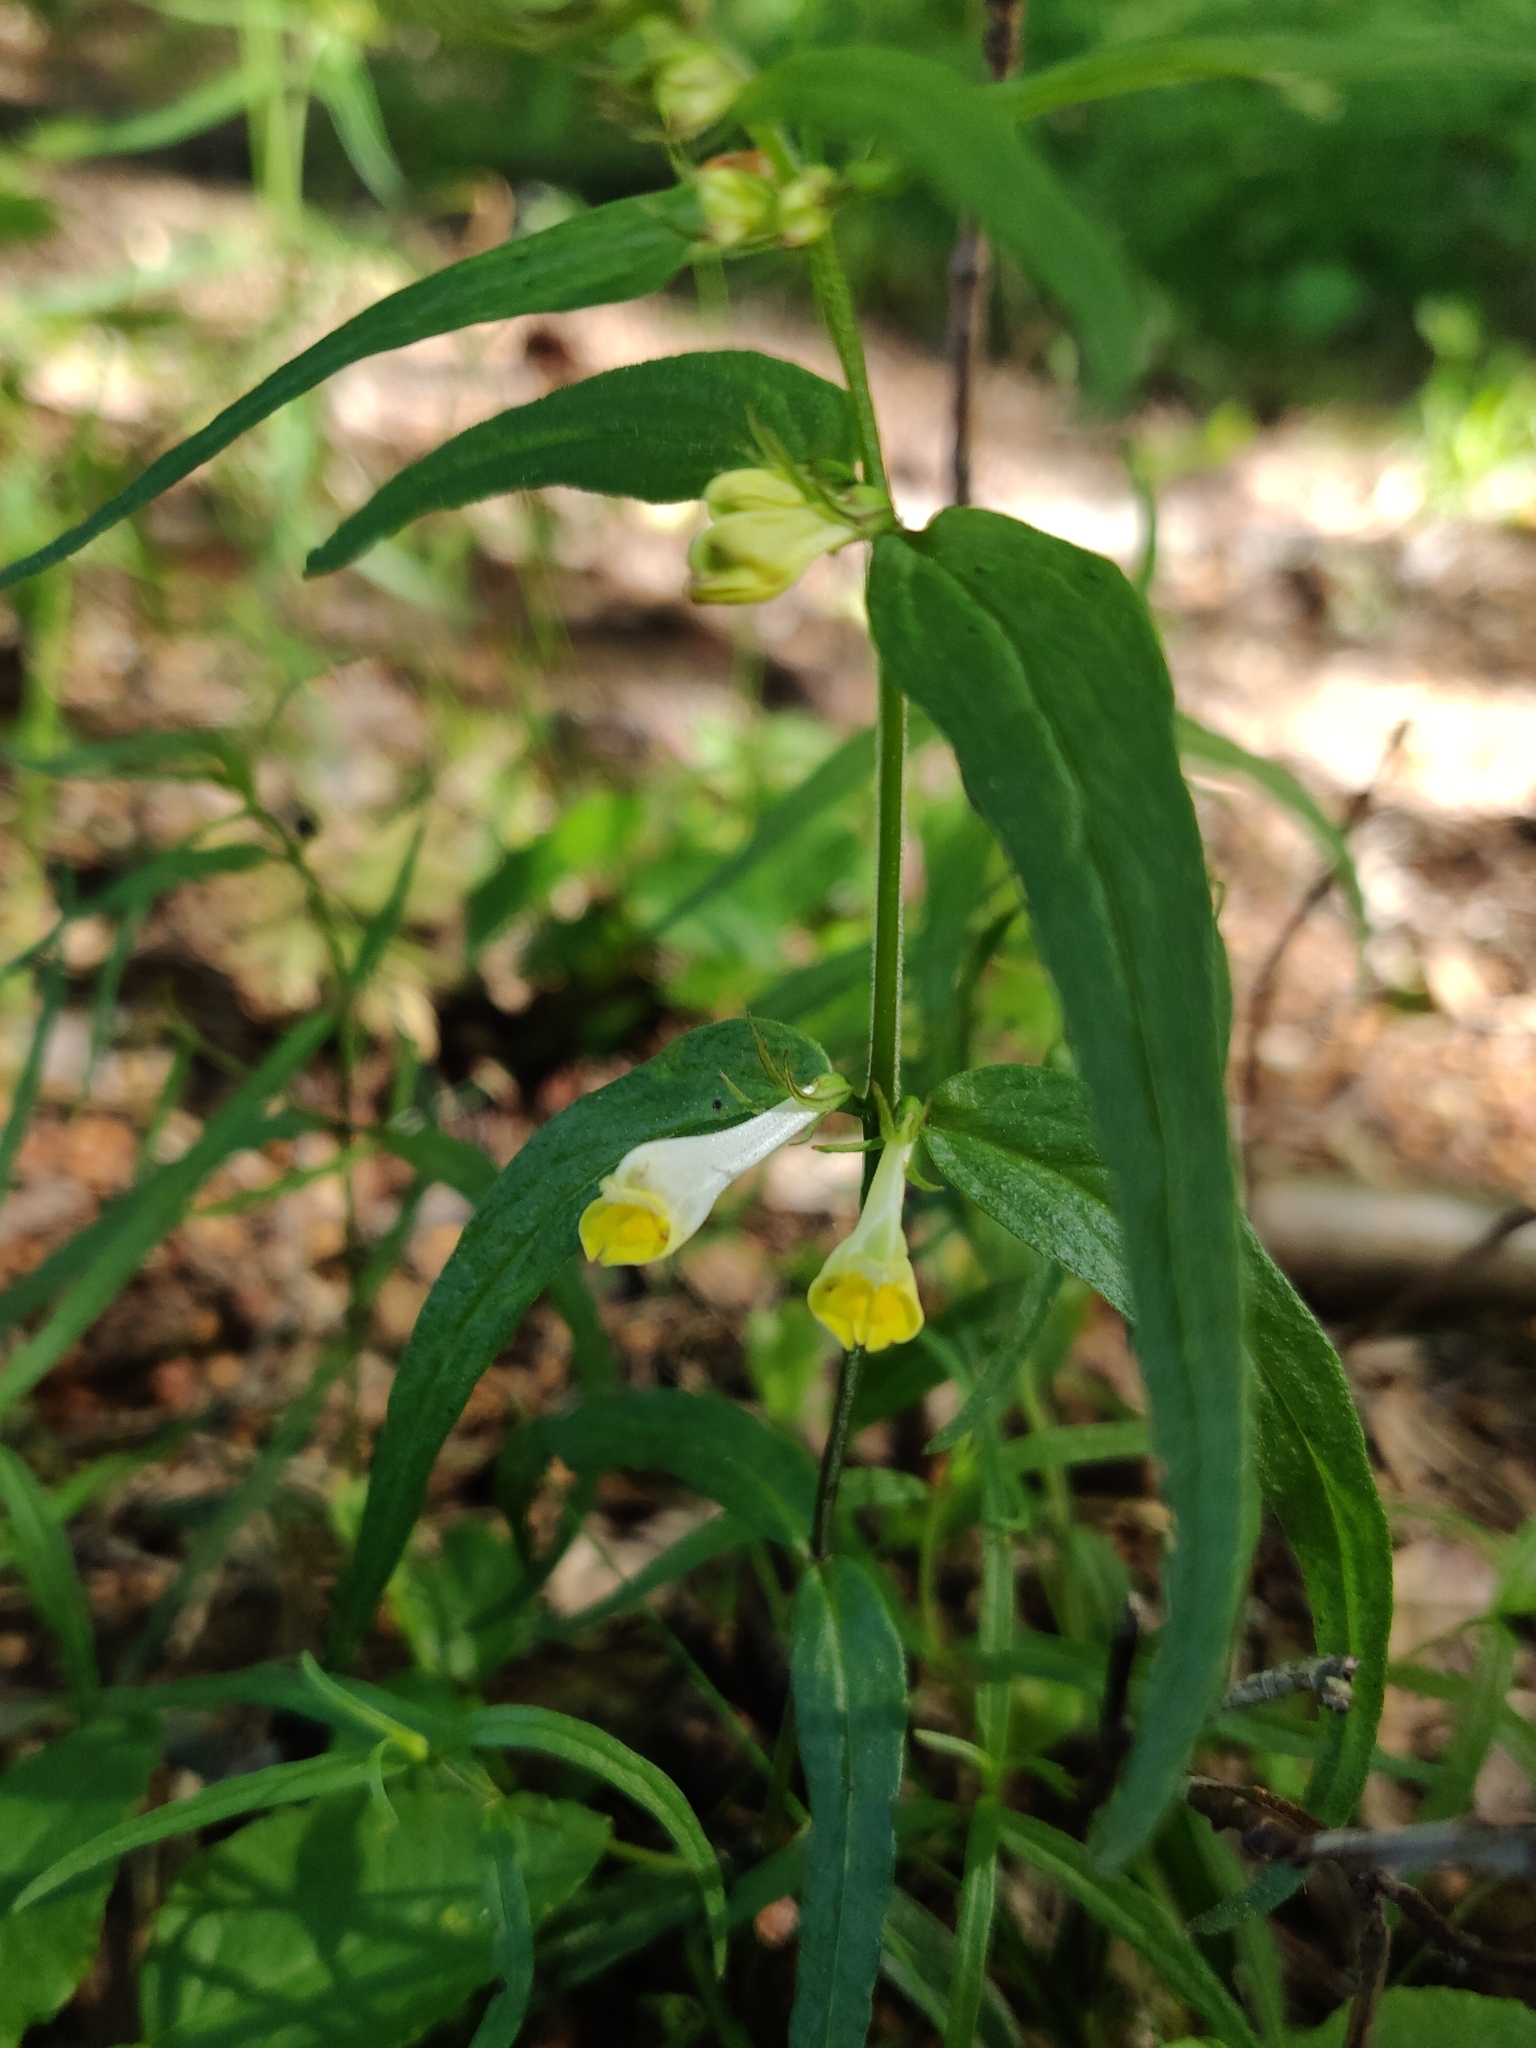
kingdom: Plantae
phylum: Tracheophyta
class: Magnoliopsida
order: Lamiales
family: Orobanchaceae
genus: Melampyrum
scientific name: Melampyrum pratense
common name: Common cow-wheat
